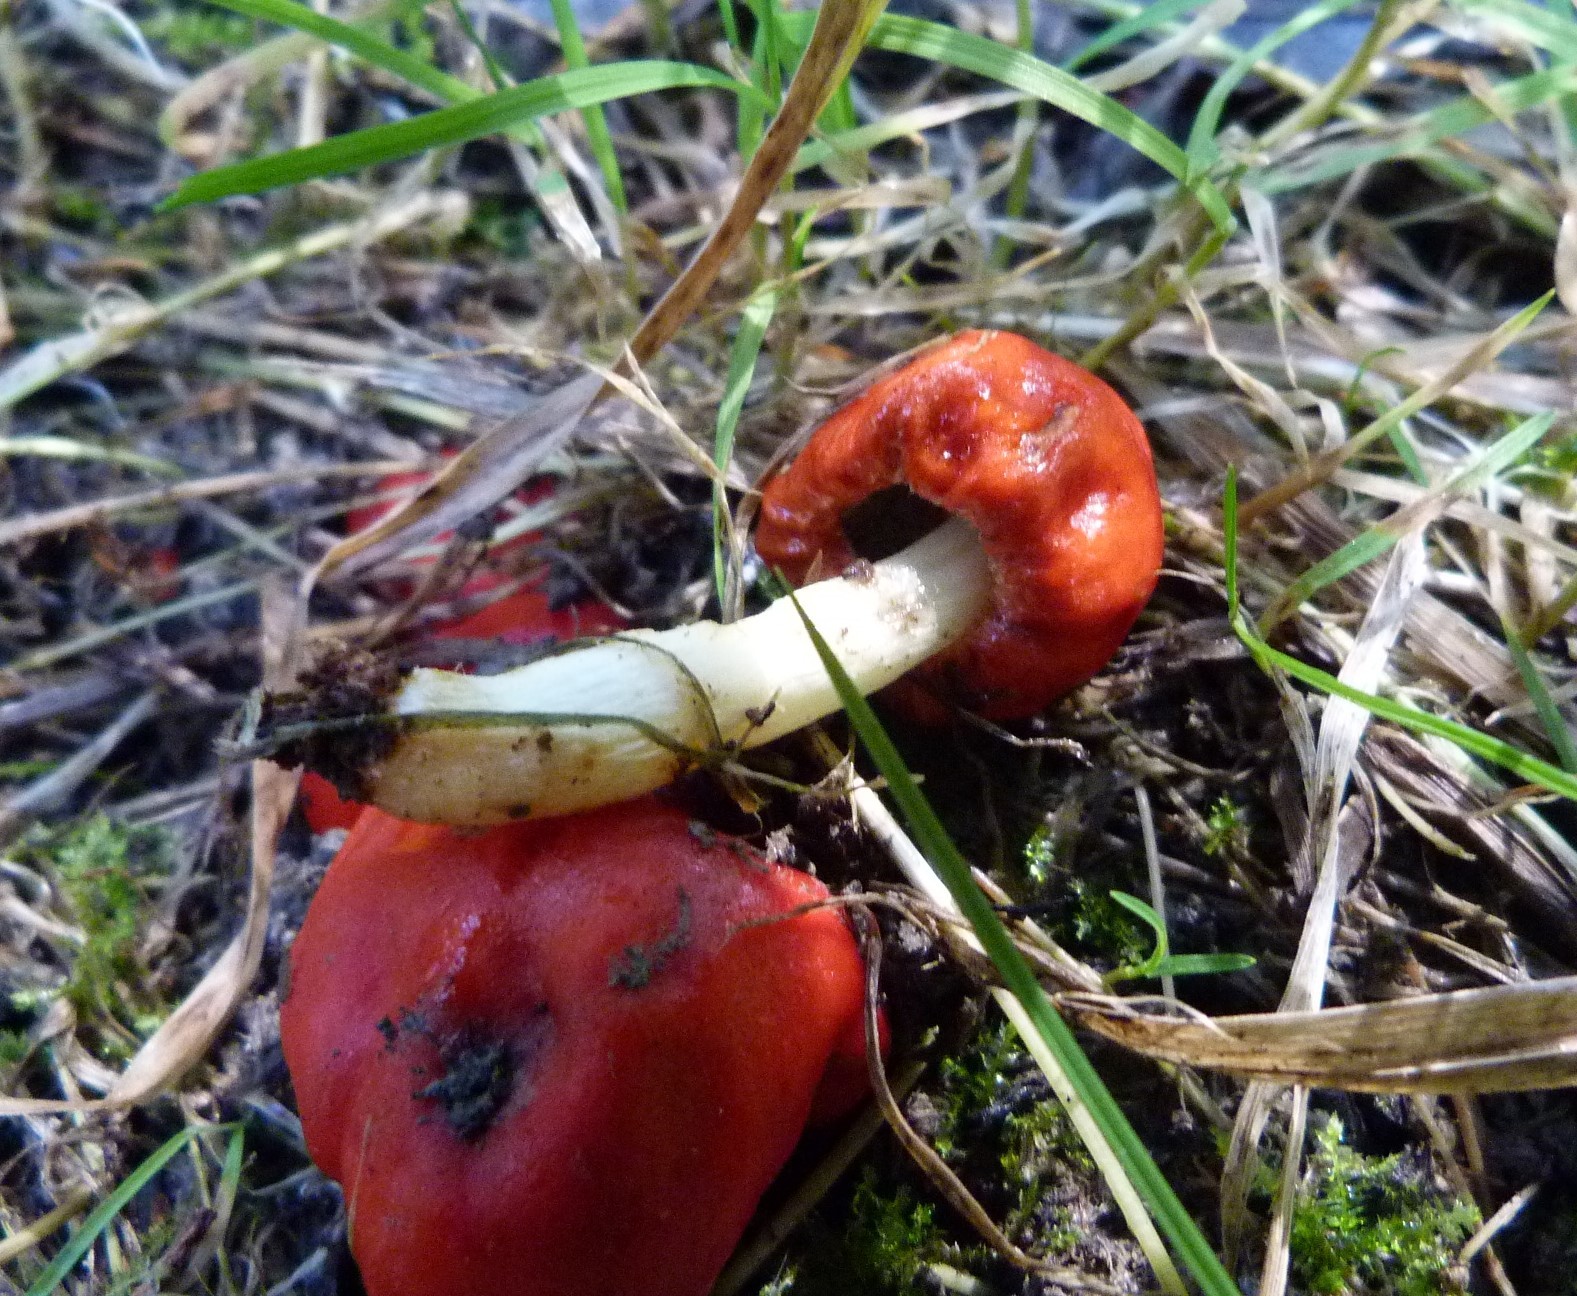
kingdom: Fungi
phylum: Basidiomycota
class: Agaricomycetes
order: Agaricales
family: Strophariaceae
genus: Leratiomyces
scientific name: Leratiomyces erythrocephalus
